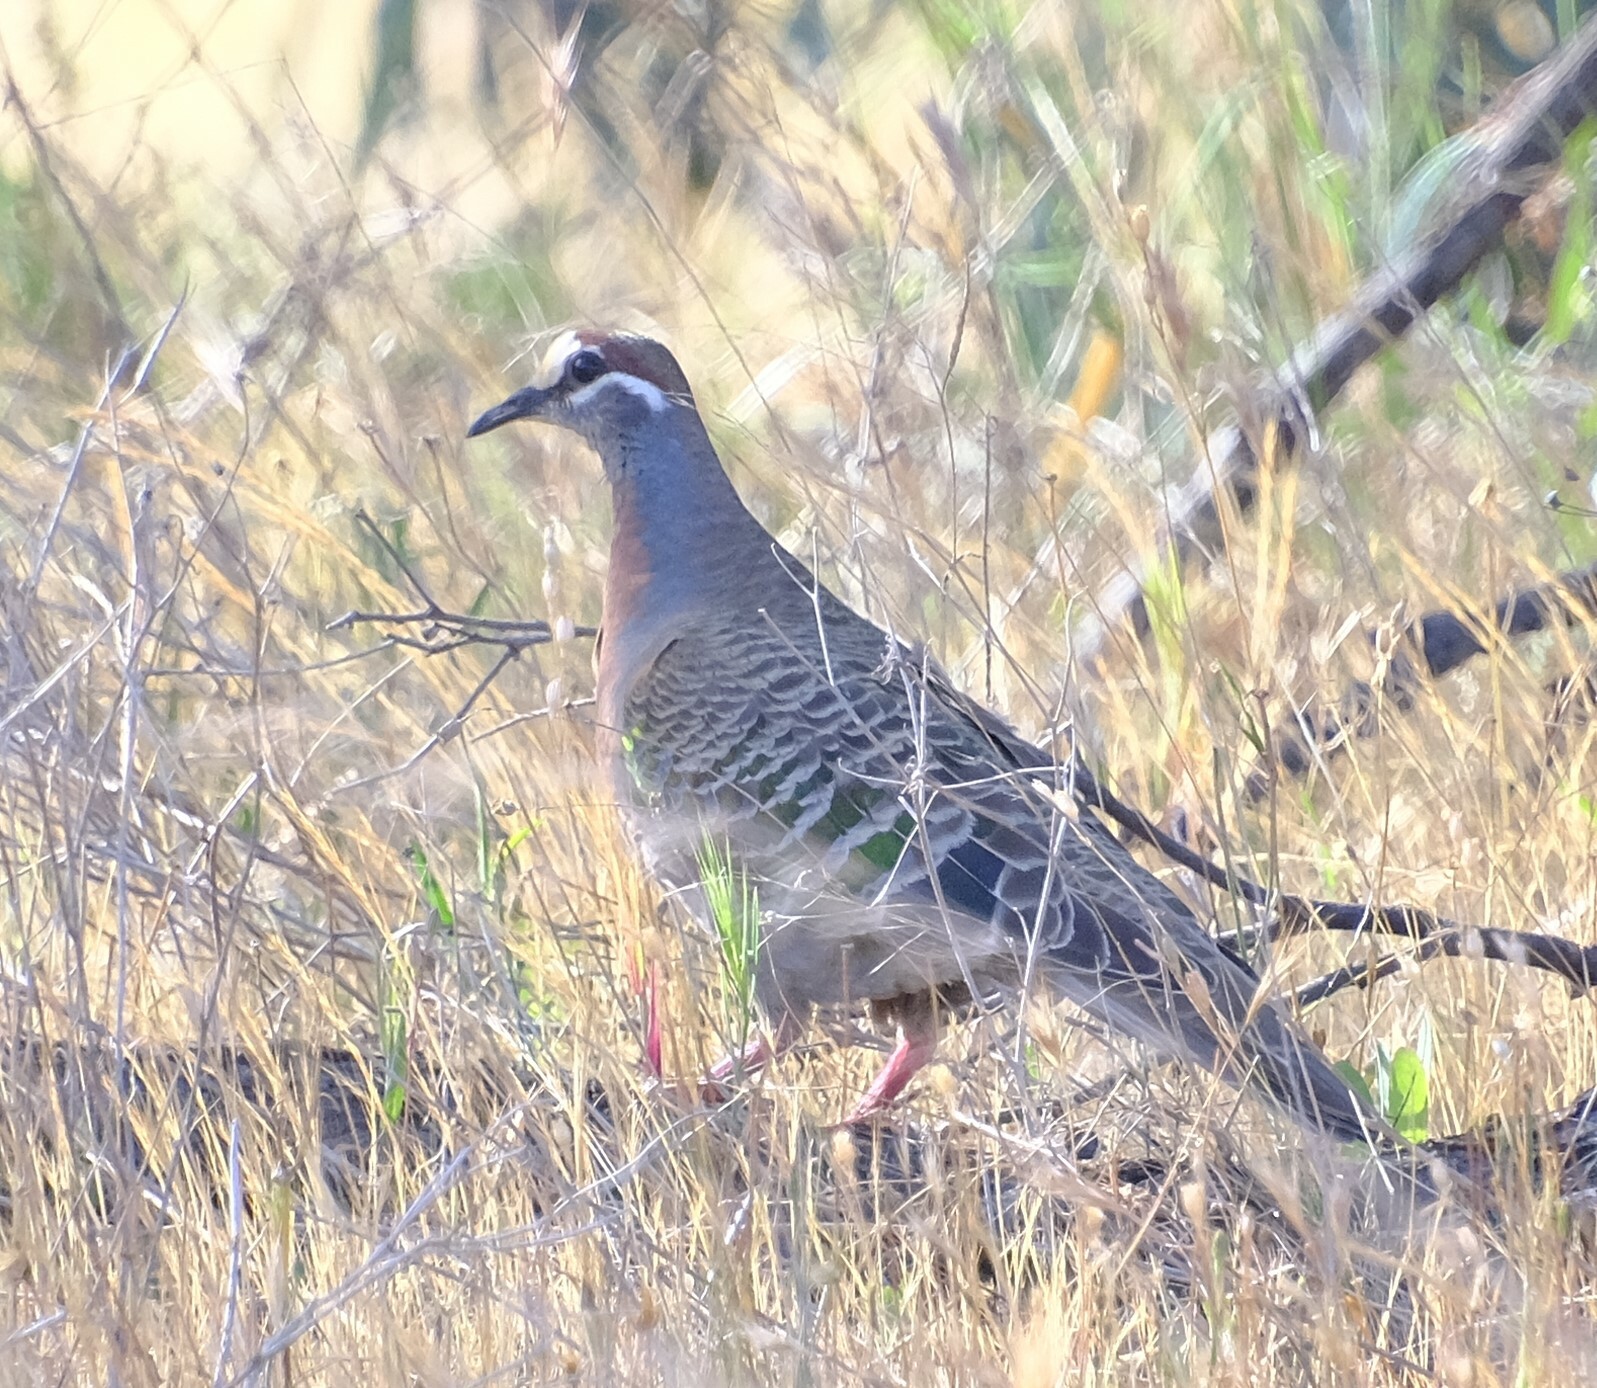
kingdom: Animalia
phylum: Chordata
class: Aves
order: Columbiformes
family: Columbidae
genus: Phaps
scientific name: Phaps chalcoptera
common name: Common bronzewing
